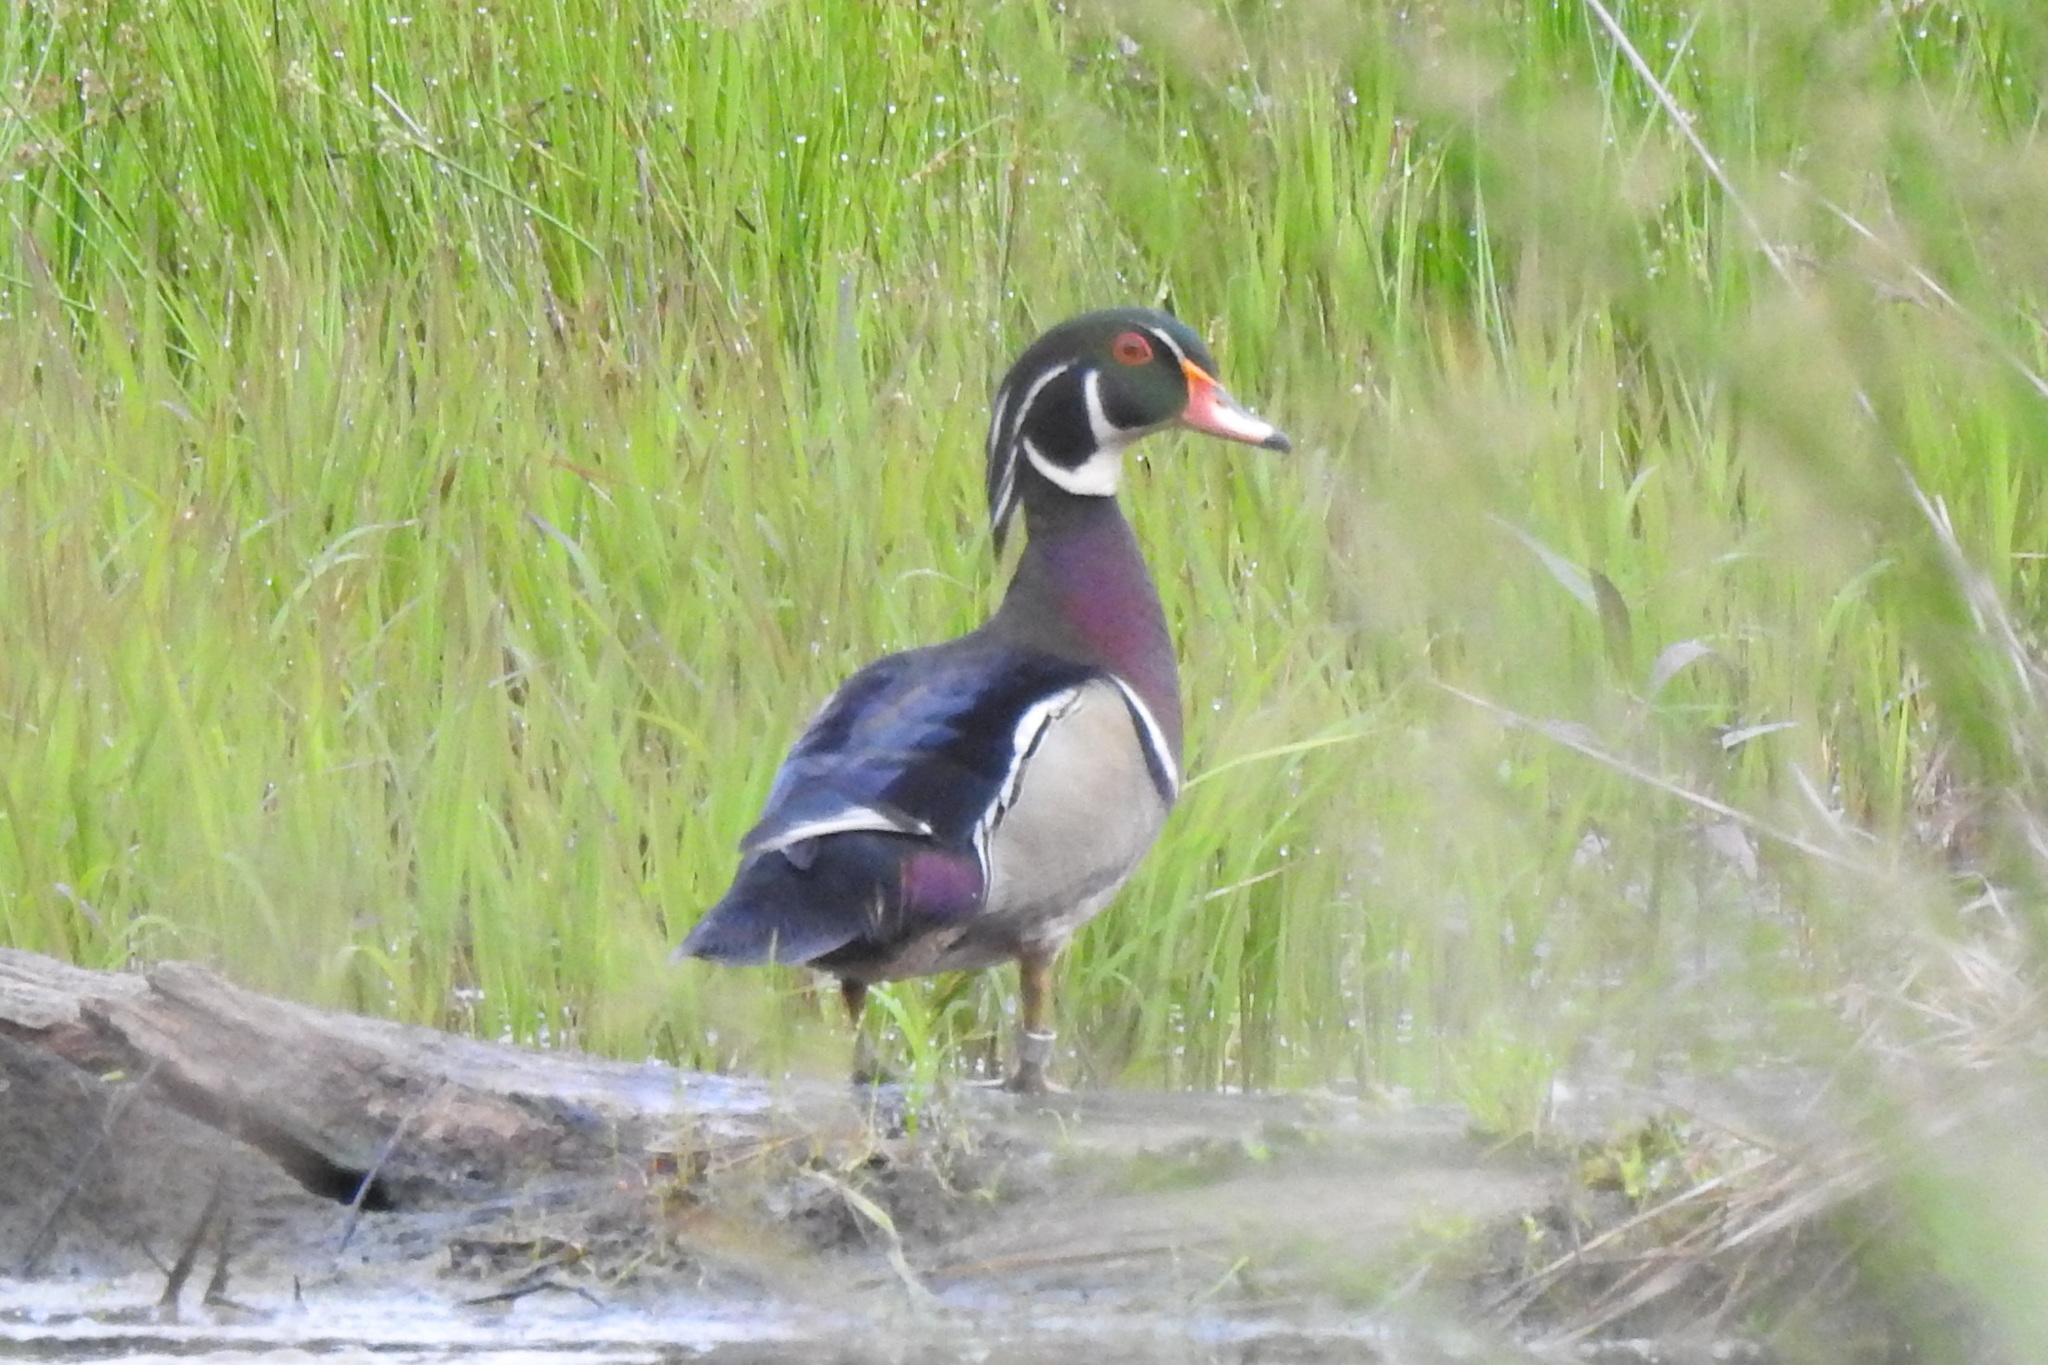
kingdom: Animalia
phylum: Chordata
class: Aves
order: Anseriformes
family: Anatidae
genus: Aix
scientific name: Aix sponsa
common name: Wood duck
